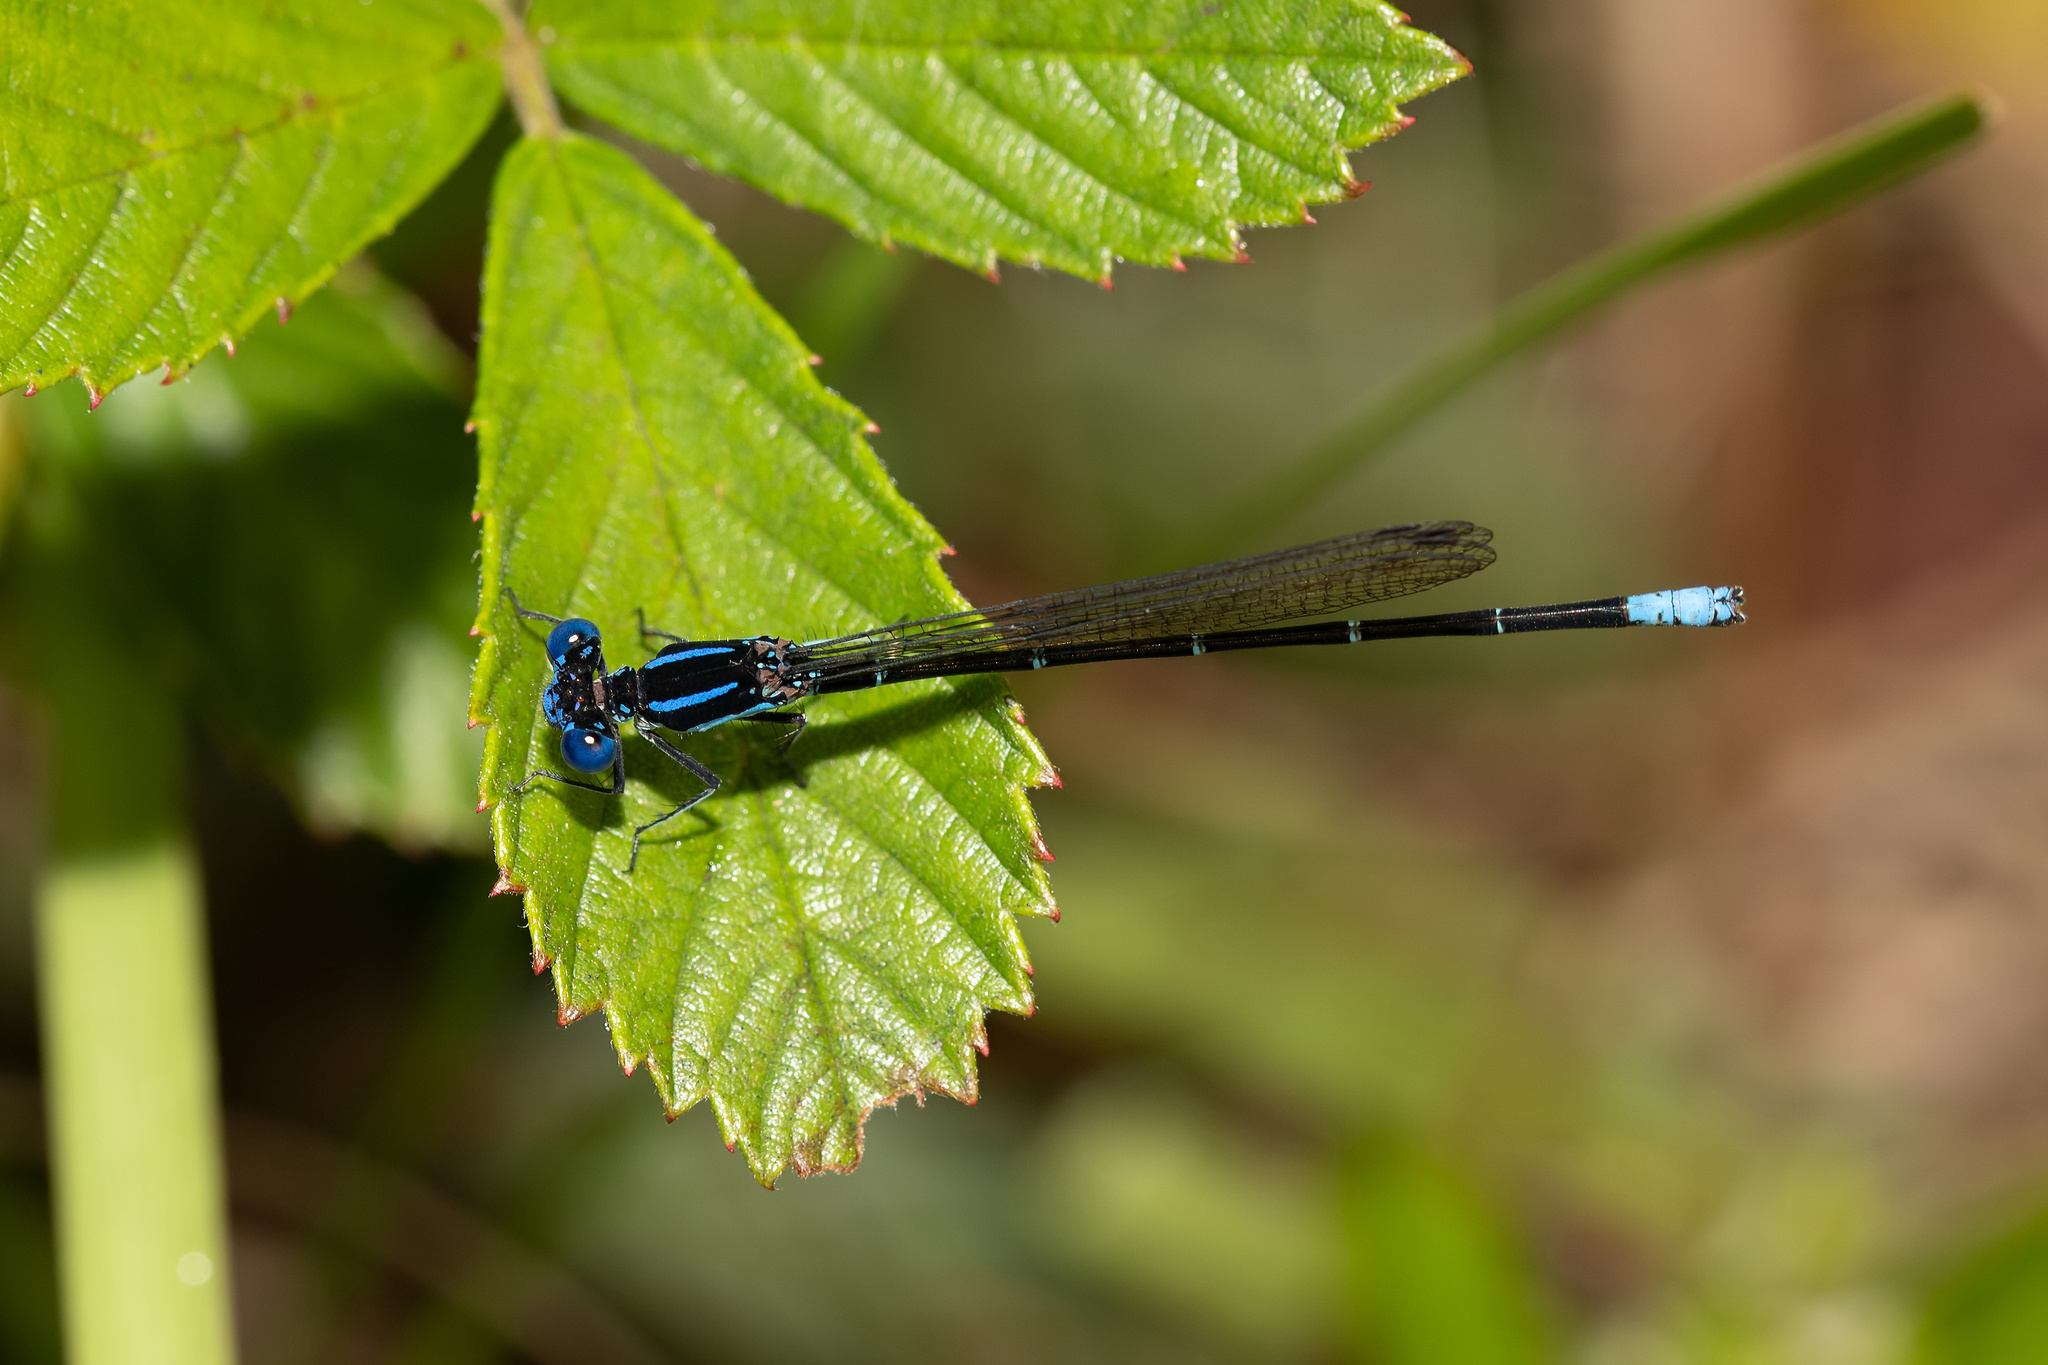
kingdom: Animalia
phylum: Arthropoda
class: Insecta
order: Odonata
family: Coenagrionidae
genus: Argia
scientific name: Argia sedula
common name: Blue-ringed dancer
